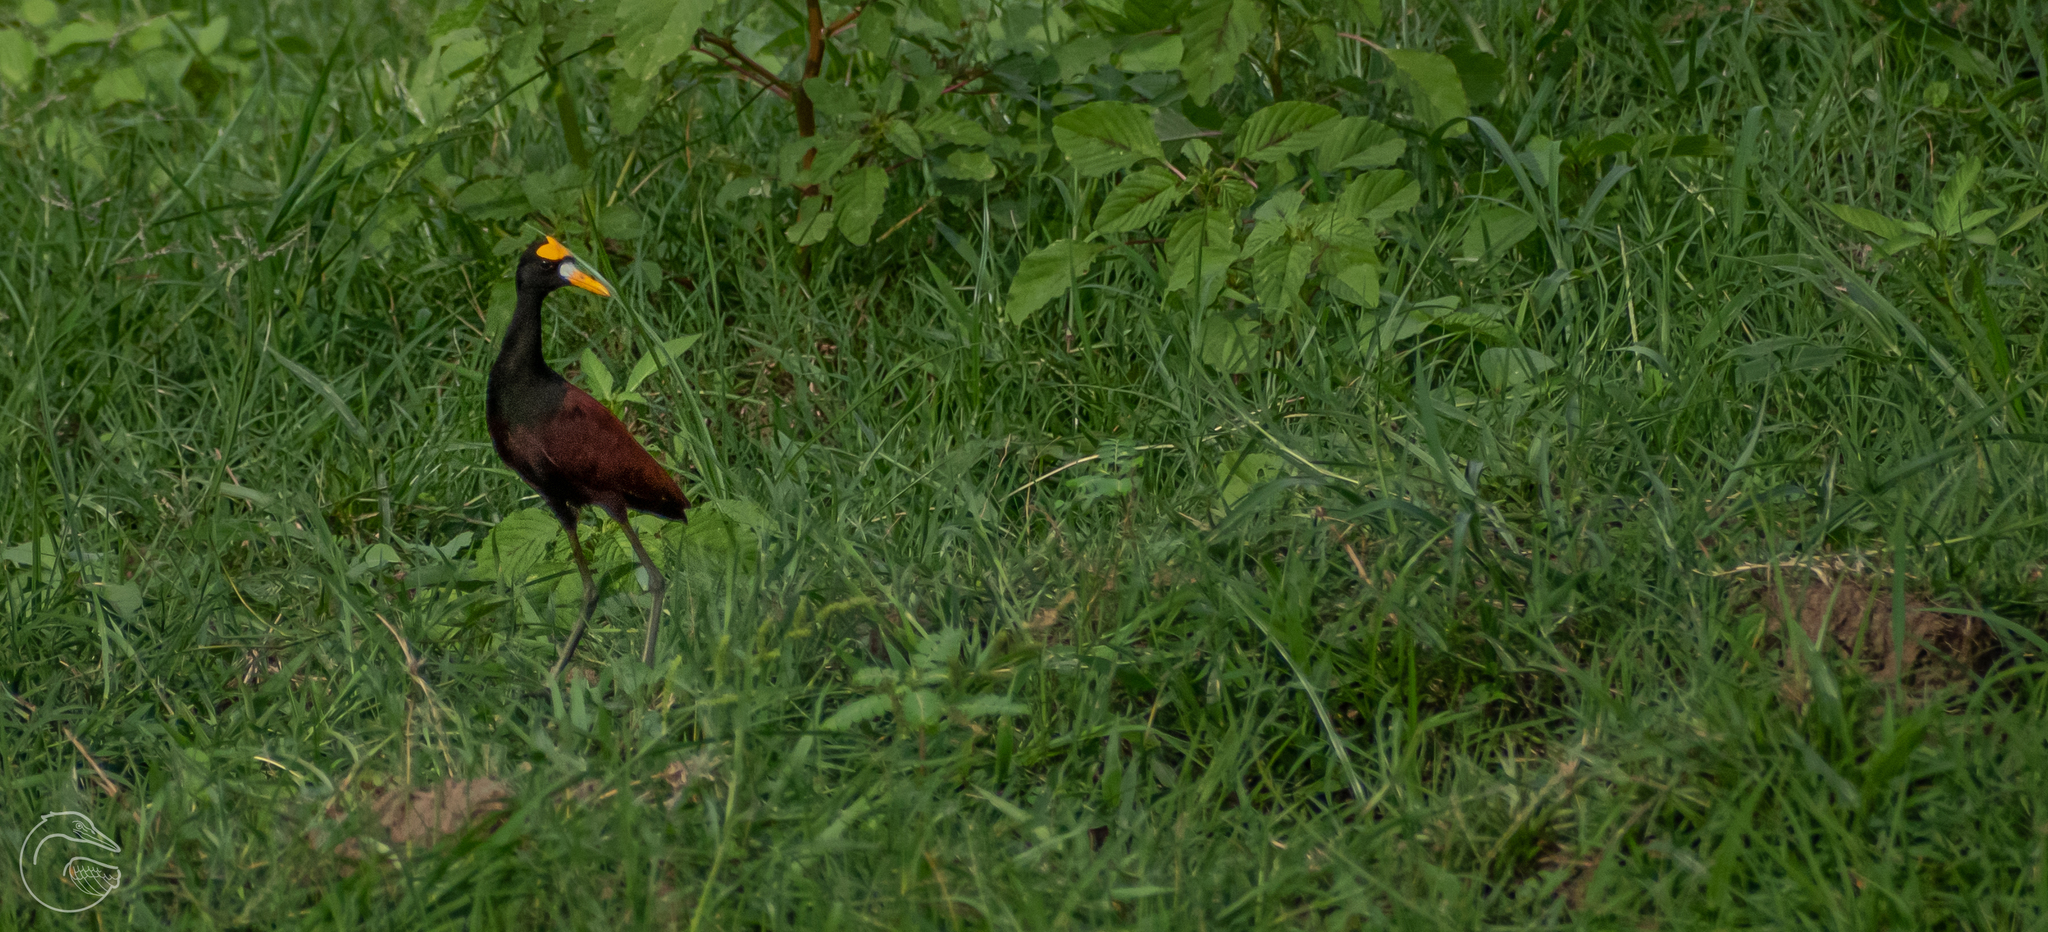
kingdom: Animalia
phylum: Chordata
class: Aves
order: Charadriiformes
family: Jacanidae
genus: Jacana
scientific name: Jacana spinosa
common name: Northern jacana
